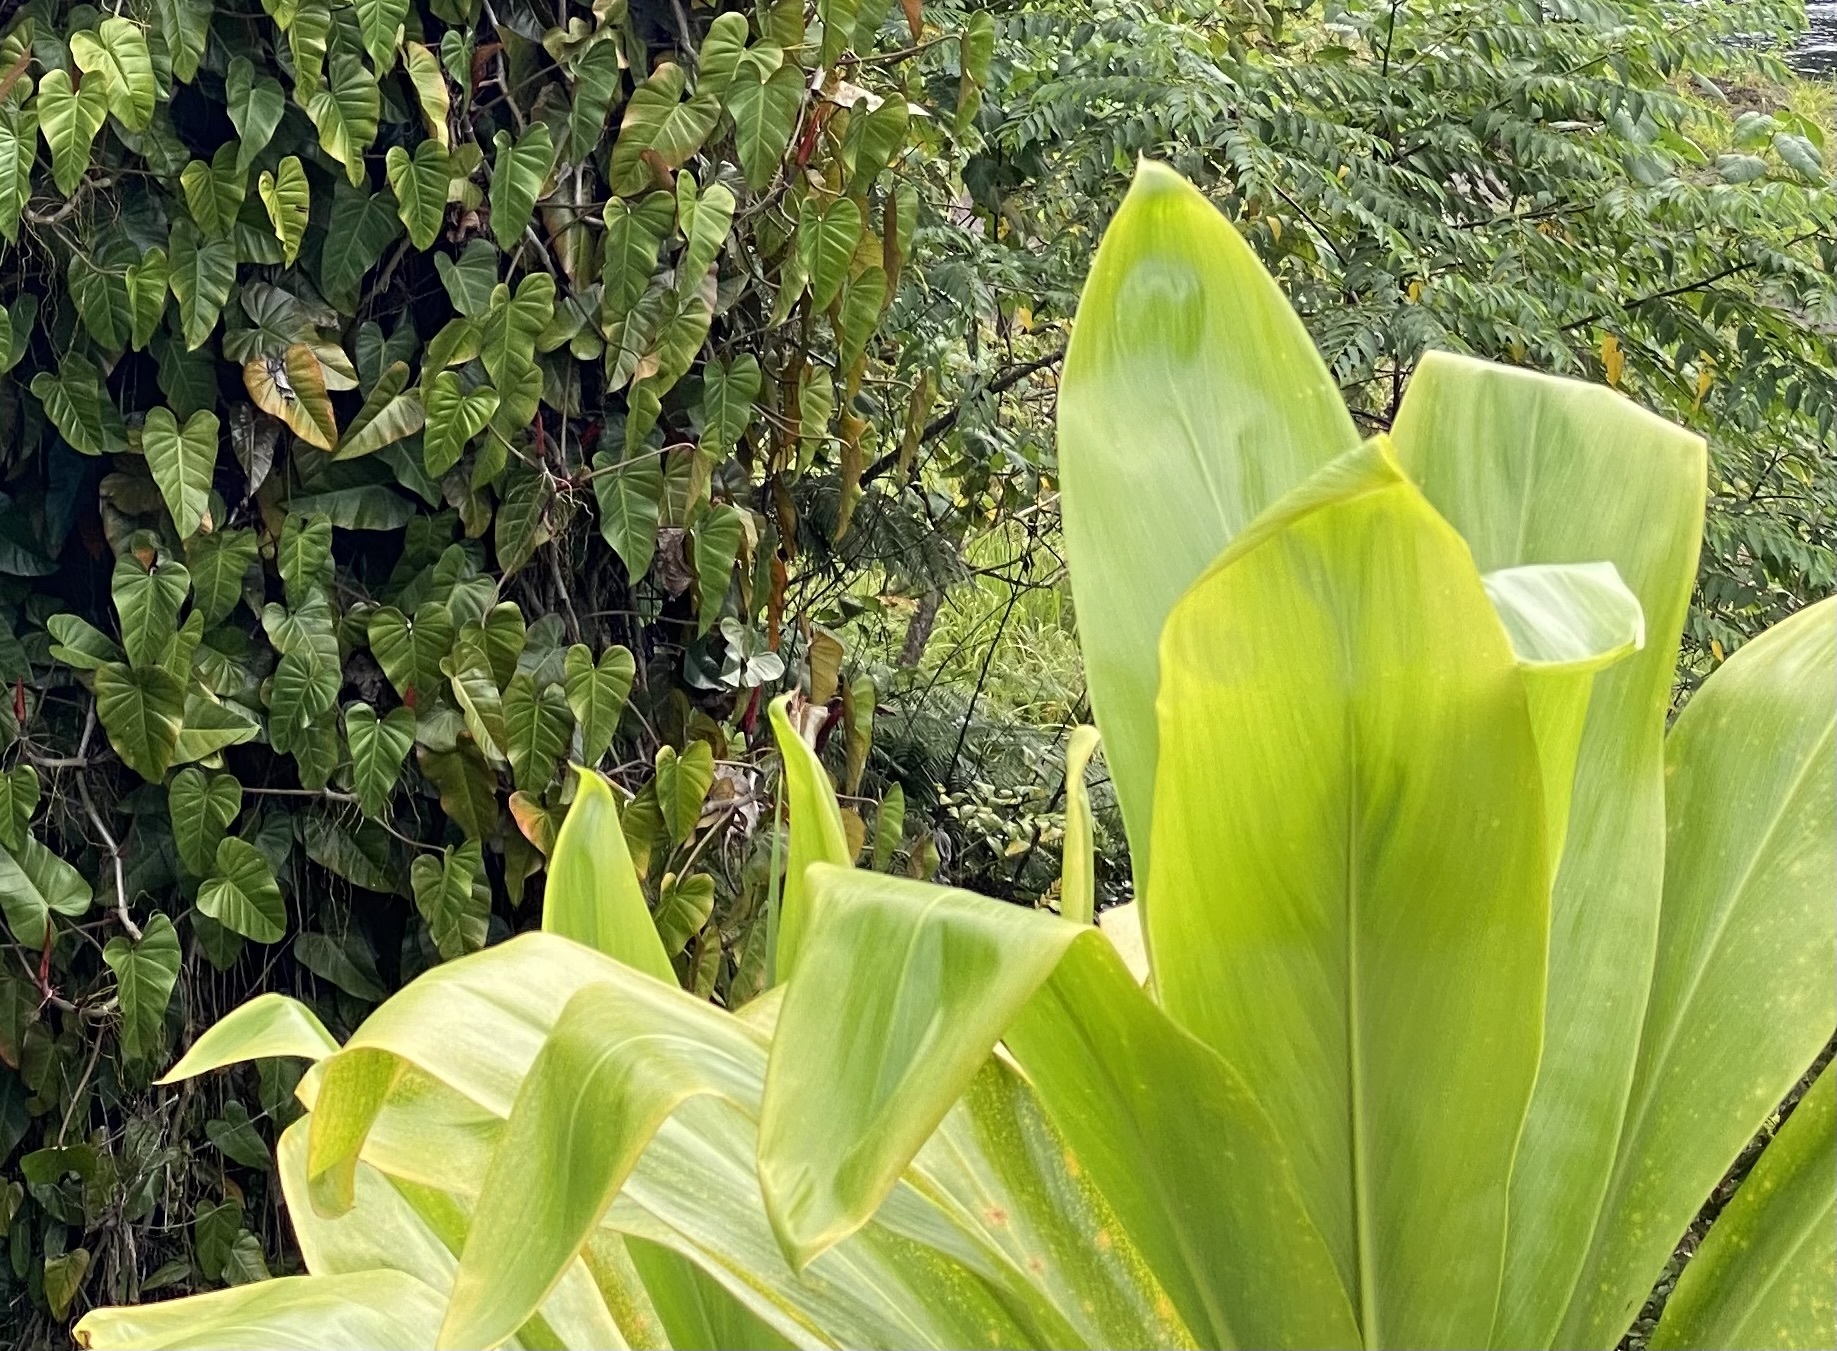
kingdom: Plantae
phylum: Tracheophyta
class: Liliopsida
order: Asparagales
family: Asparagaceae
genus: Cordyline
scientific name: Cordyline fruticosa
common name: Good-luck-plant
